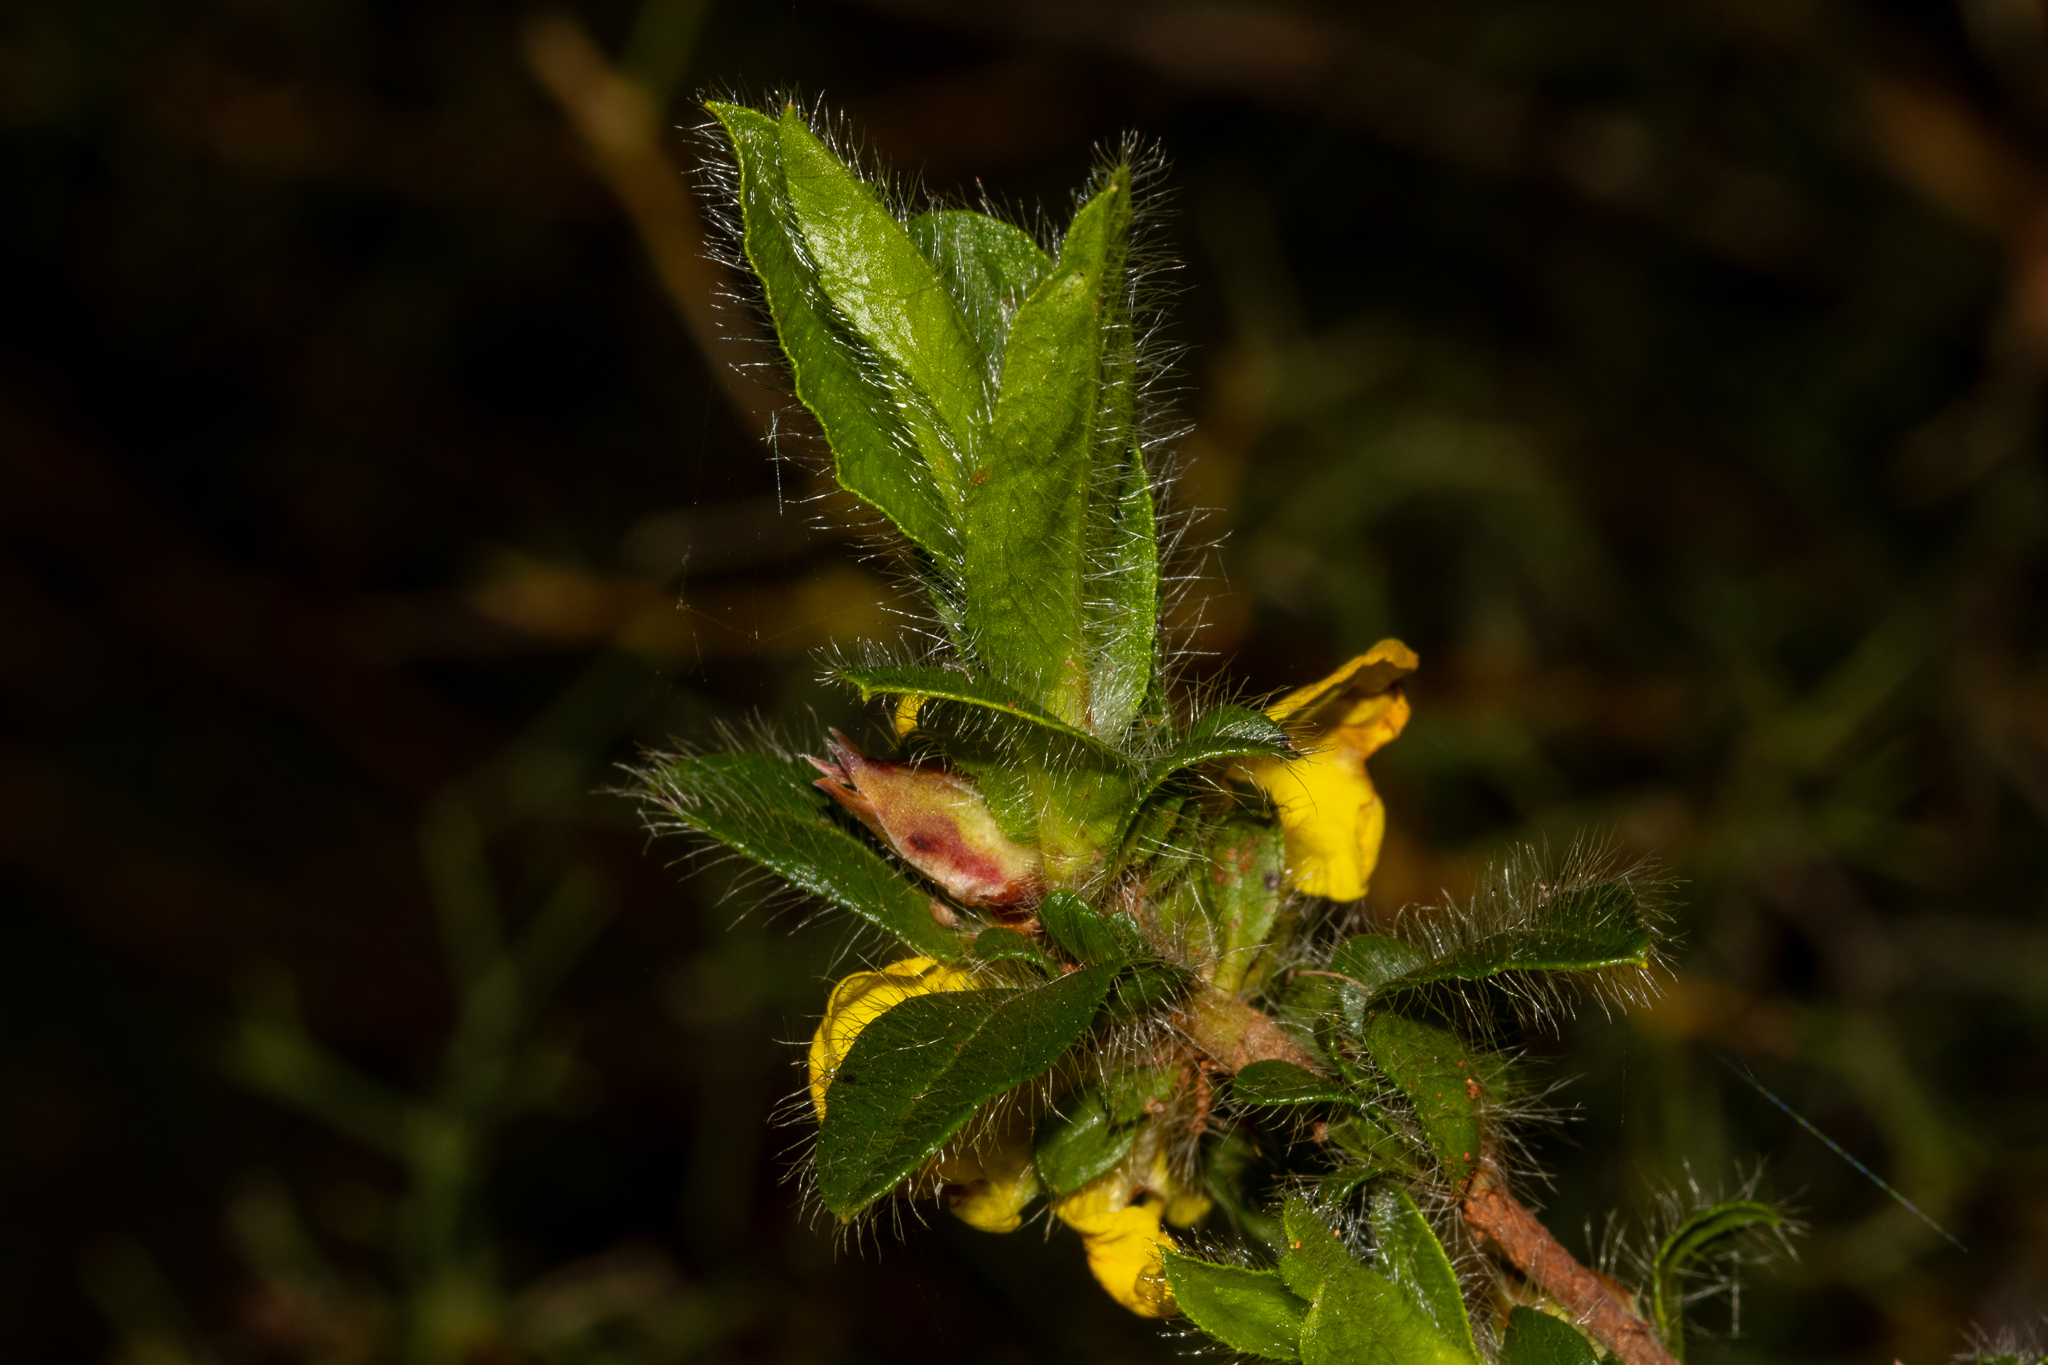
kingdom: Plantae
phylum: Tracheophyta
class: Magnoliopsida
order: Dilleniales
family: Dilleniaceae
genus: Hibbertia
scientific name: Hibbertia pilosa
